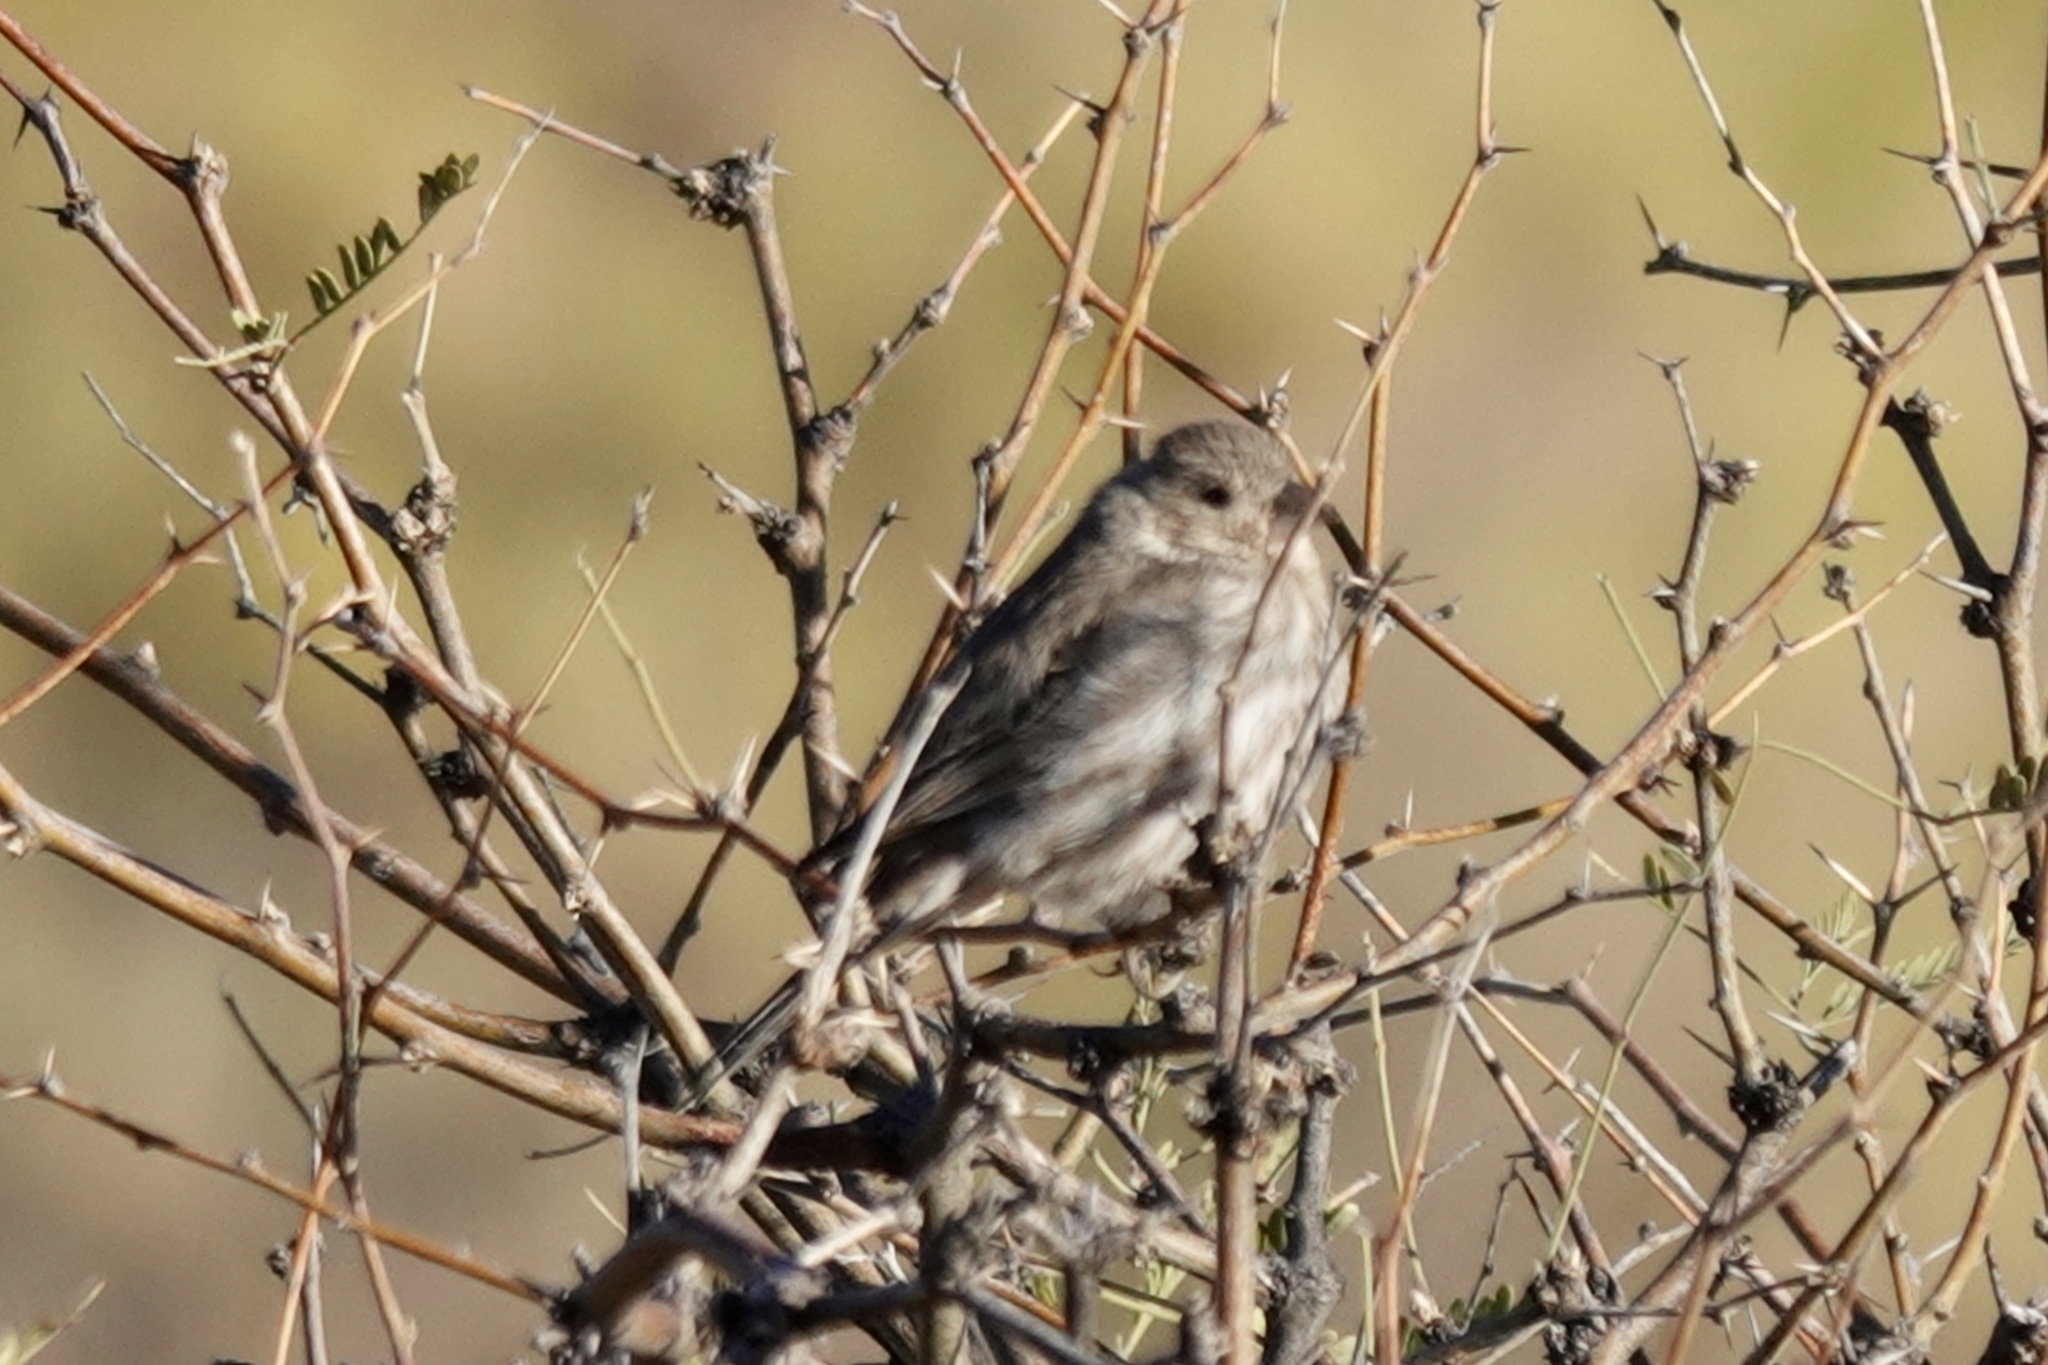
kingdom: Animalia
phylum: Chordata
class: Aves
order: Passeriformes
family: Fringillidae
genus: Haemorhous
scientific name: Haemorhous mexicanus
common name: House finch
